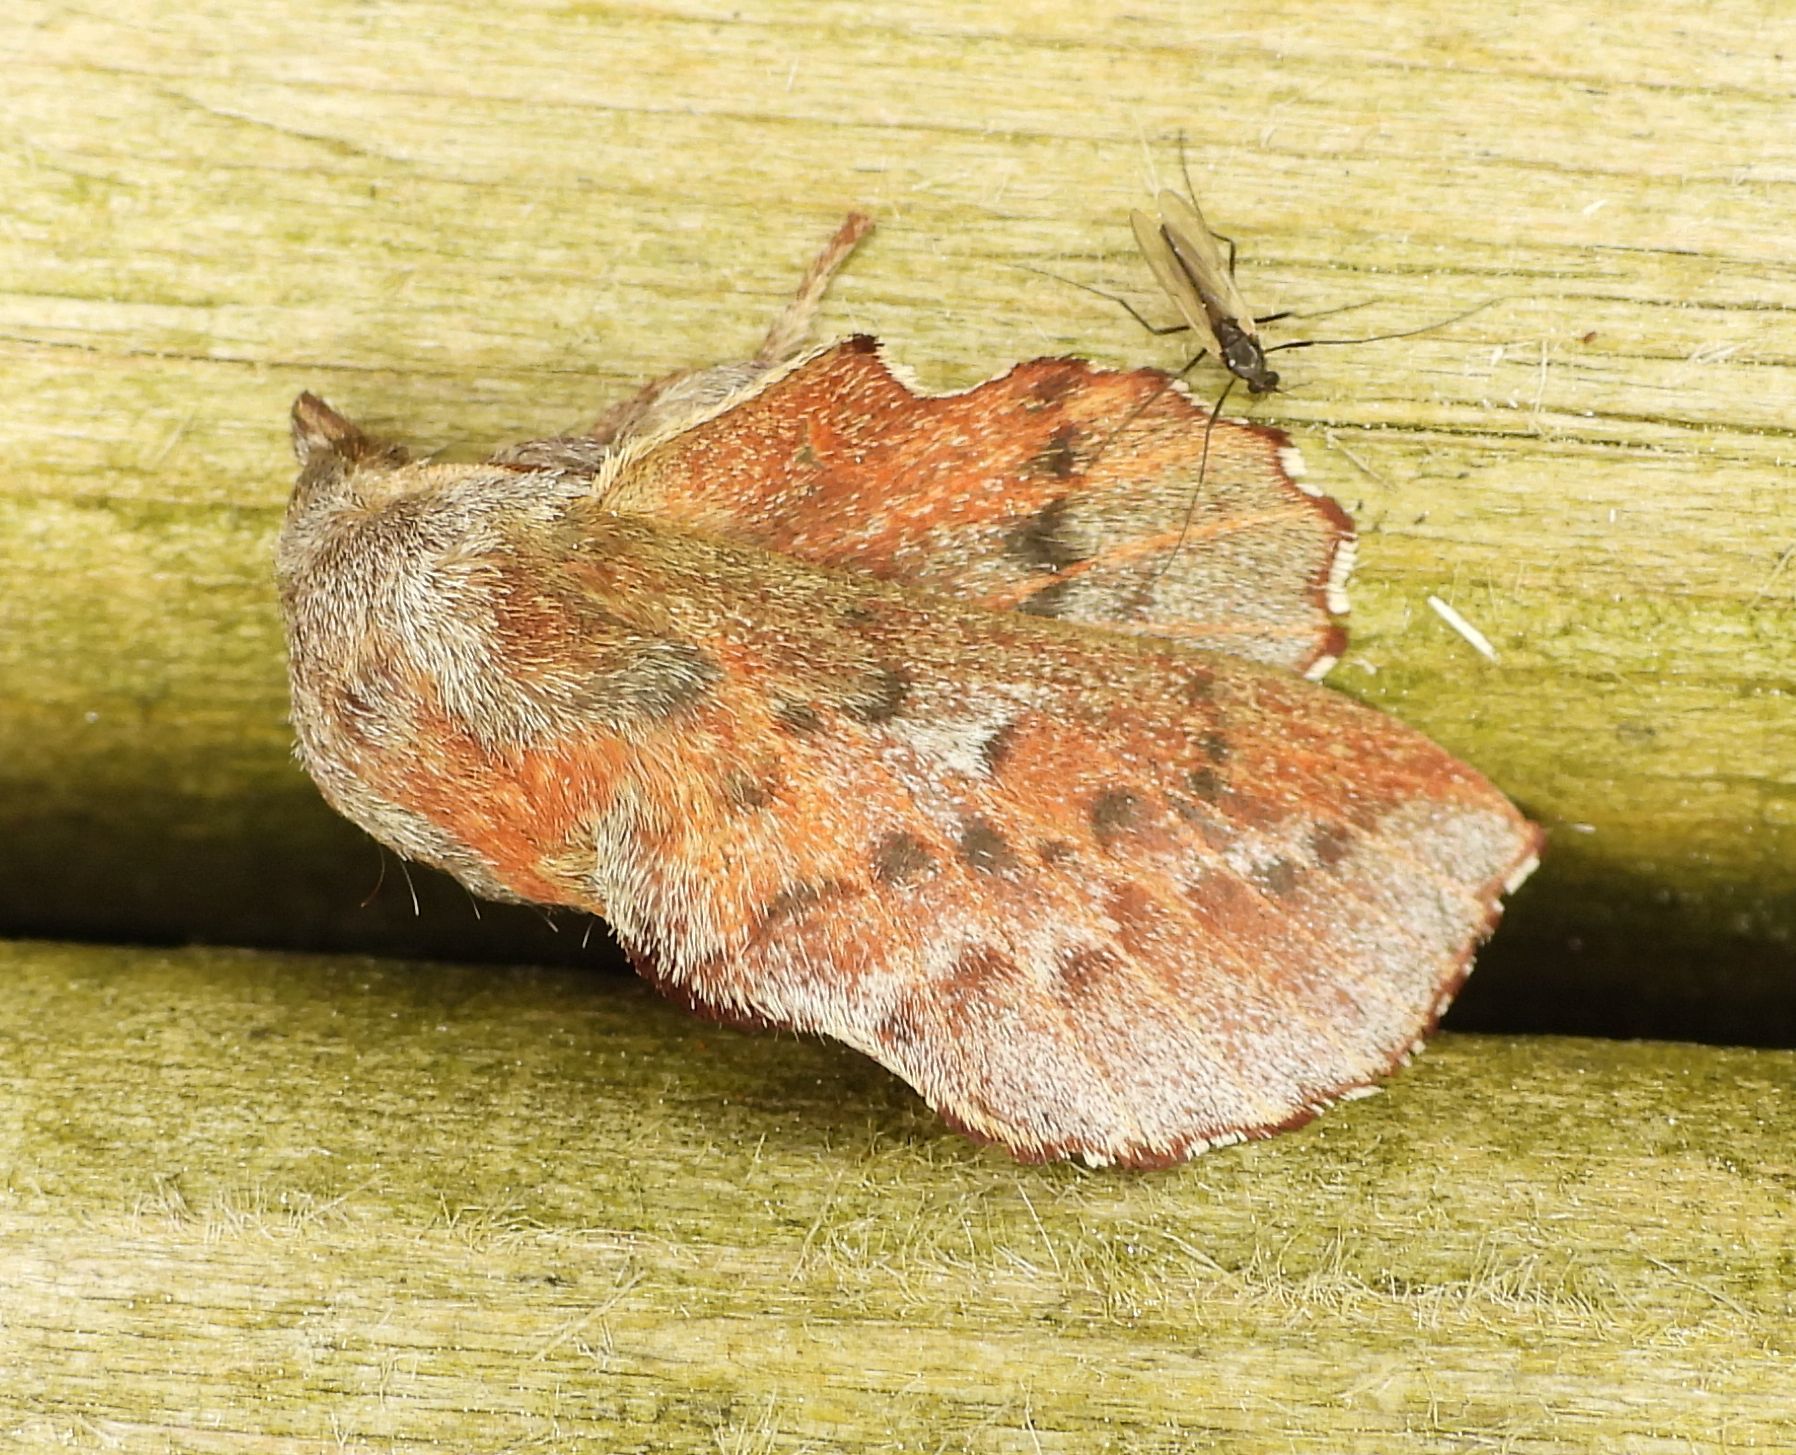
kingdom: Animalia
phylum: Arthropoda
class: Insecta
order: Lepidoptera
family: Lasiocampidae
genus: Phyllodesma
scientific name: Phyllodesma americana
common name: American lappet moth
